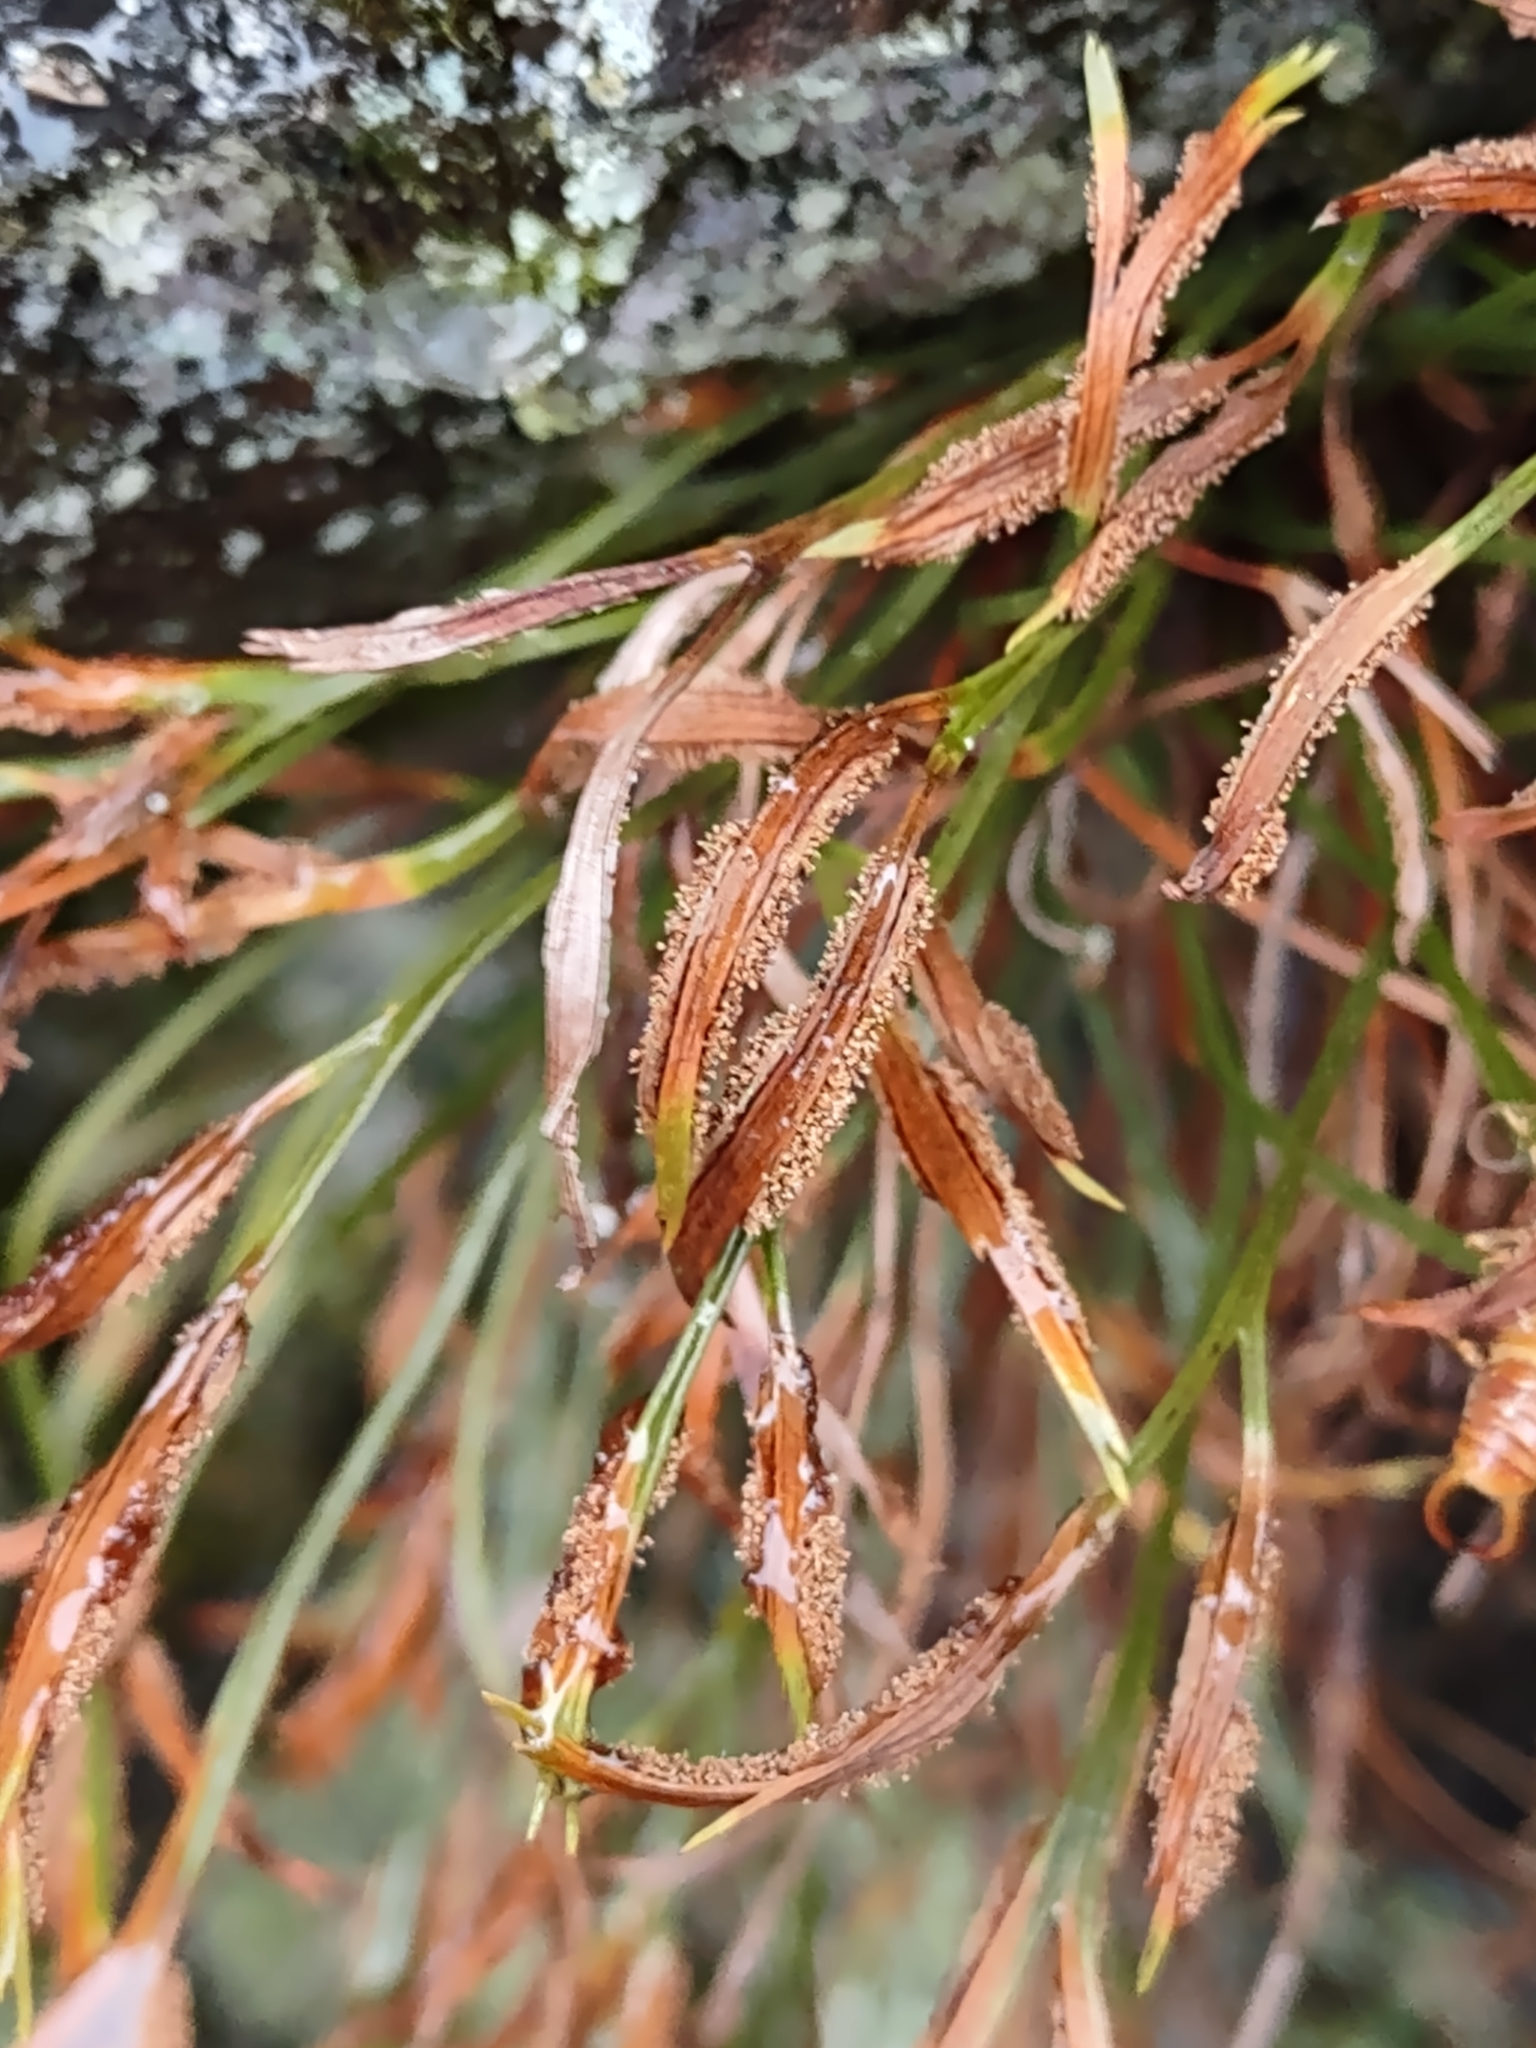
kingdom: Plantae
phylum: Tracheophyta
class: Polypodiopsida
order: Polypodiales
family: Aspleniaceae
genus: Asplenium
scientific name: Asplenium septentrionale
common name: Forked spleenwort
